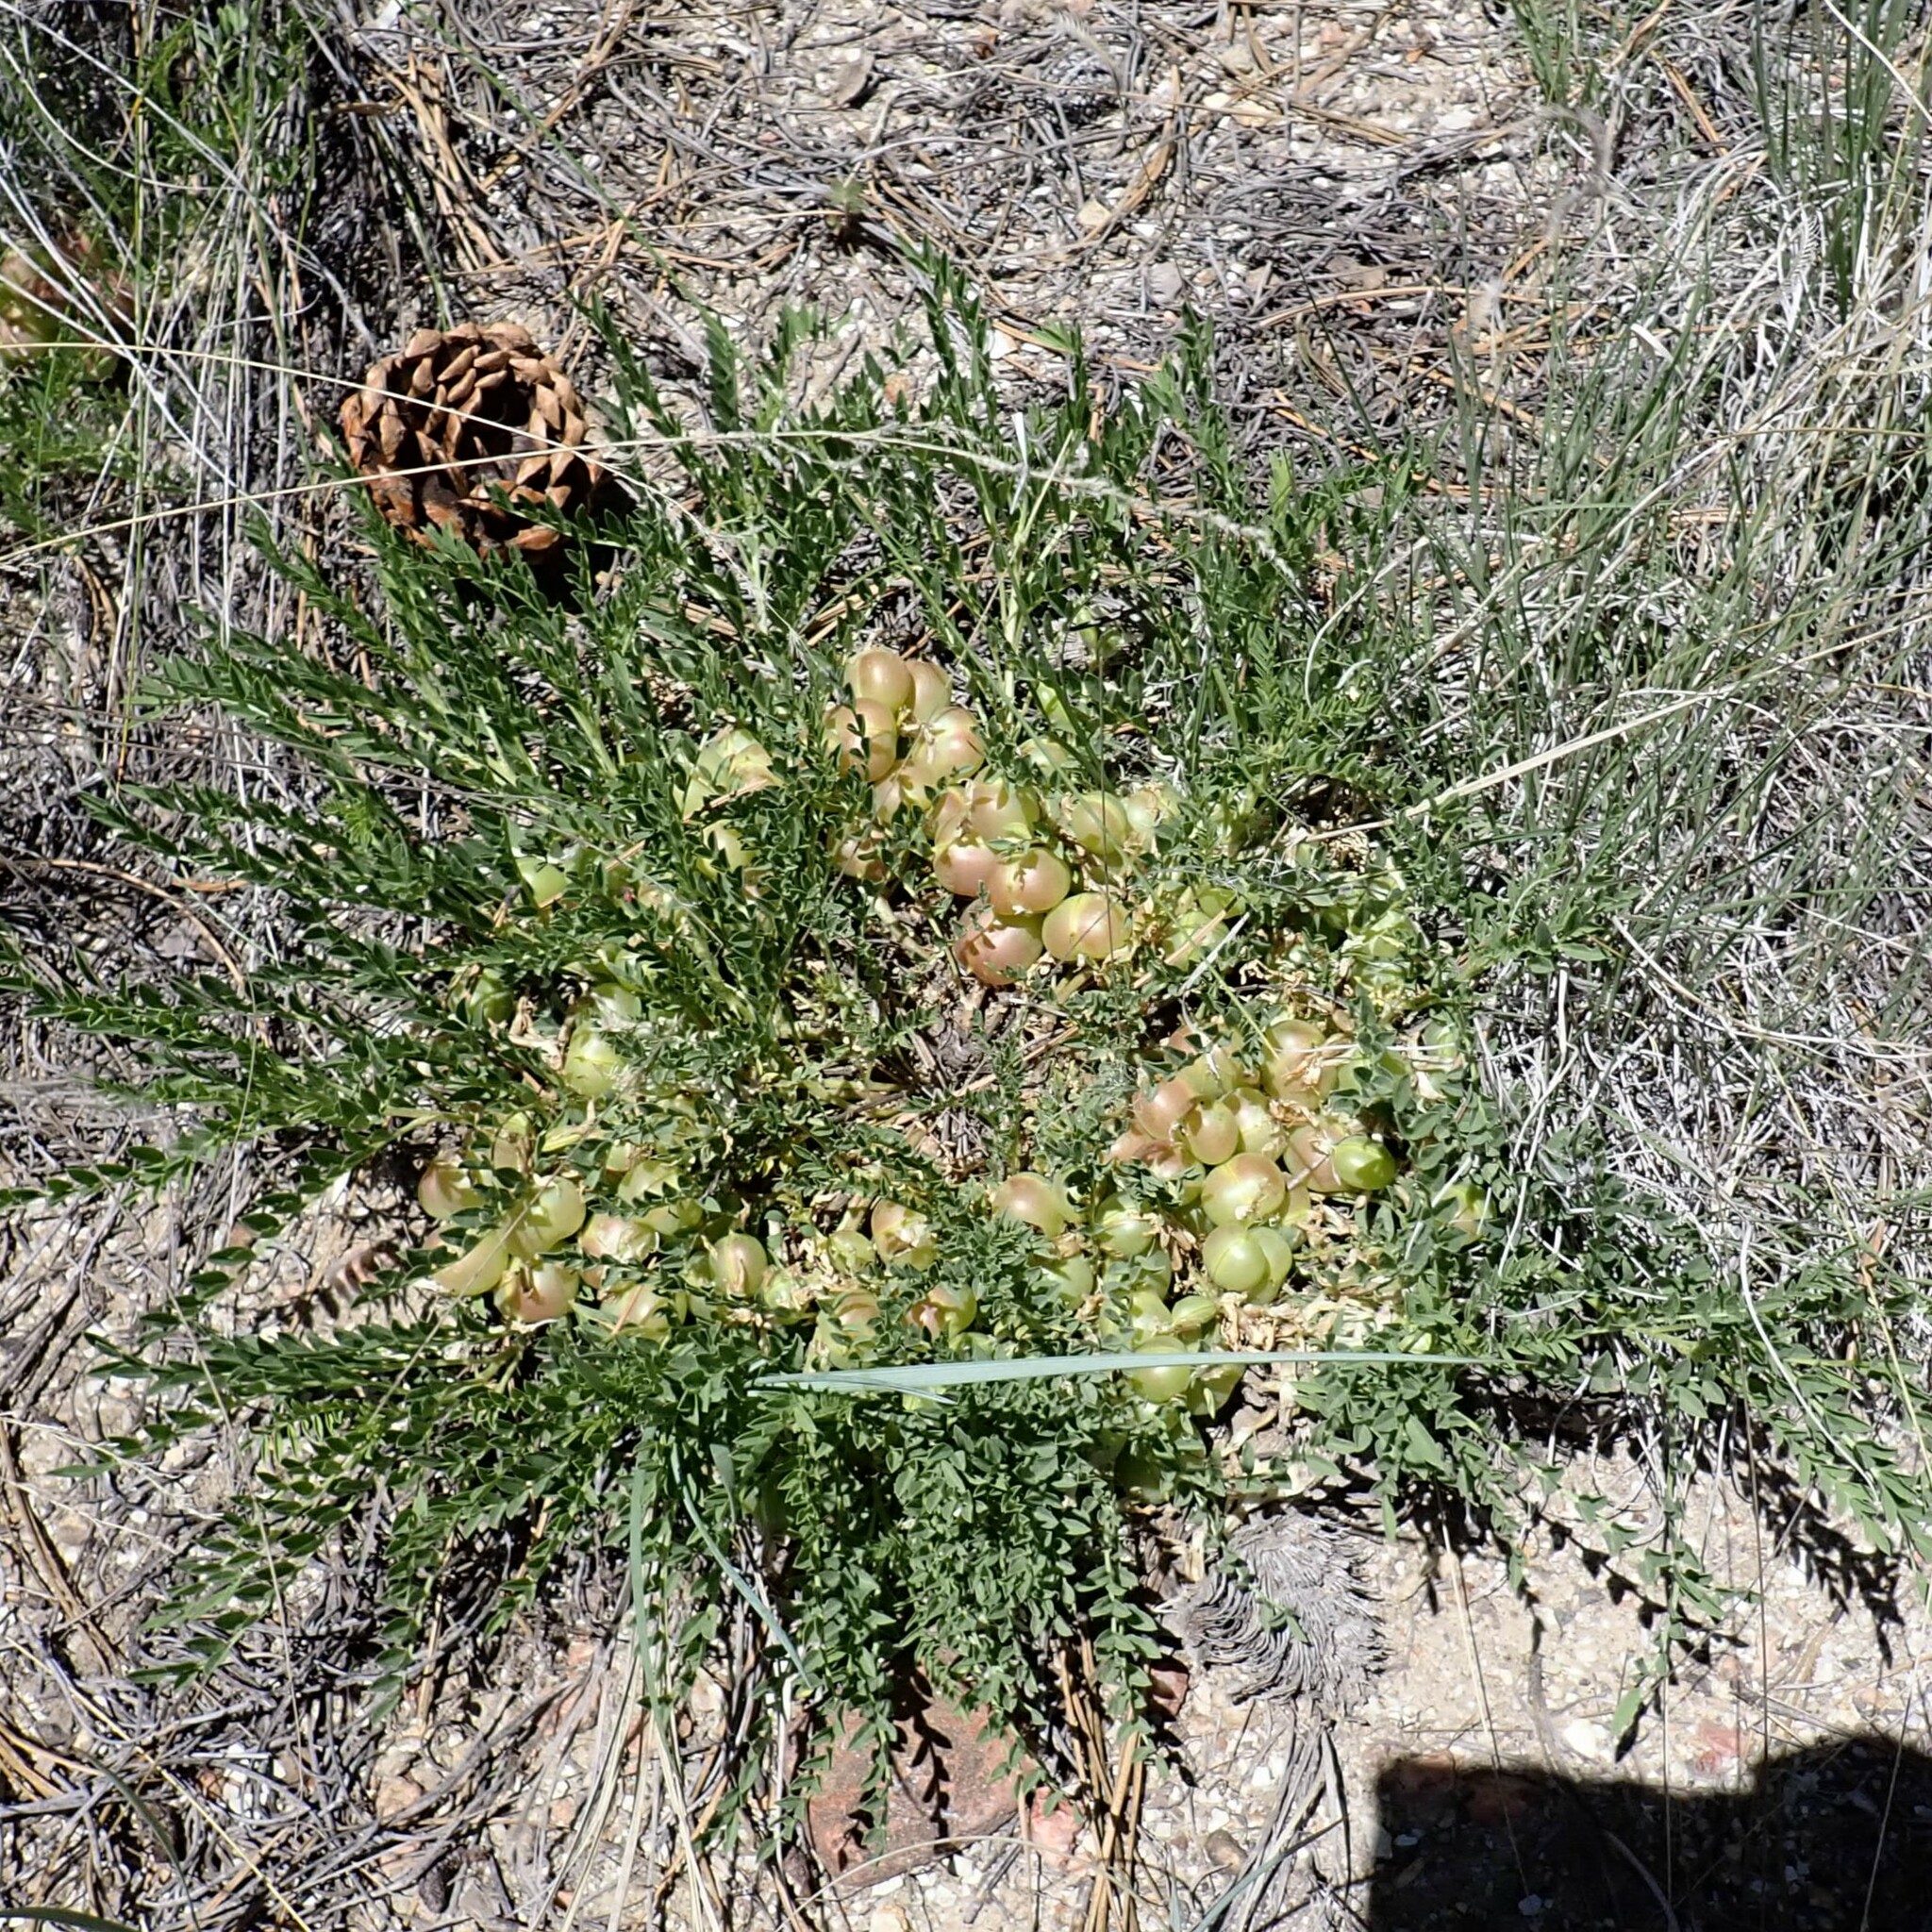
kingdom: Plantae
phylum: Tracheophyta
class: Magnoliopsida
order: Fabales
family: Fabaceae
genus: Astragalus
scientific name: Astragalus crassicarpus
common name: Ground-plum milk-vetch
